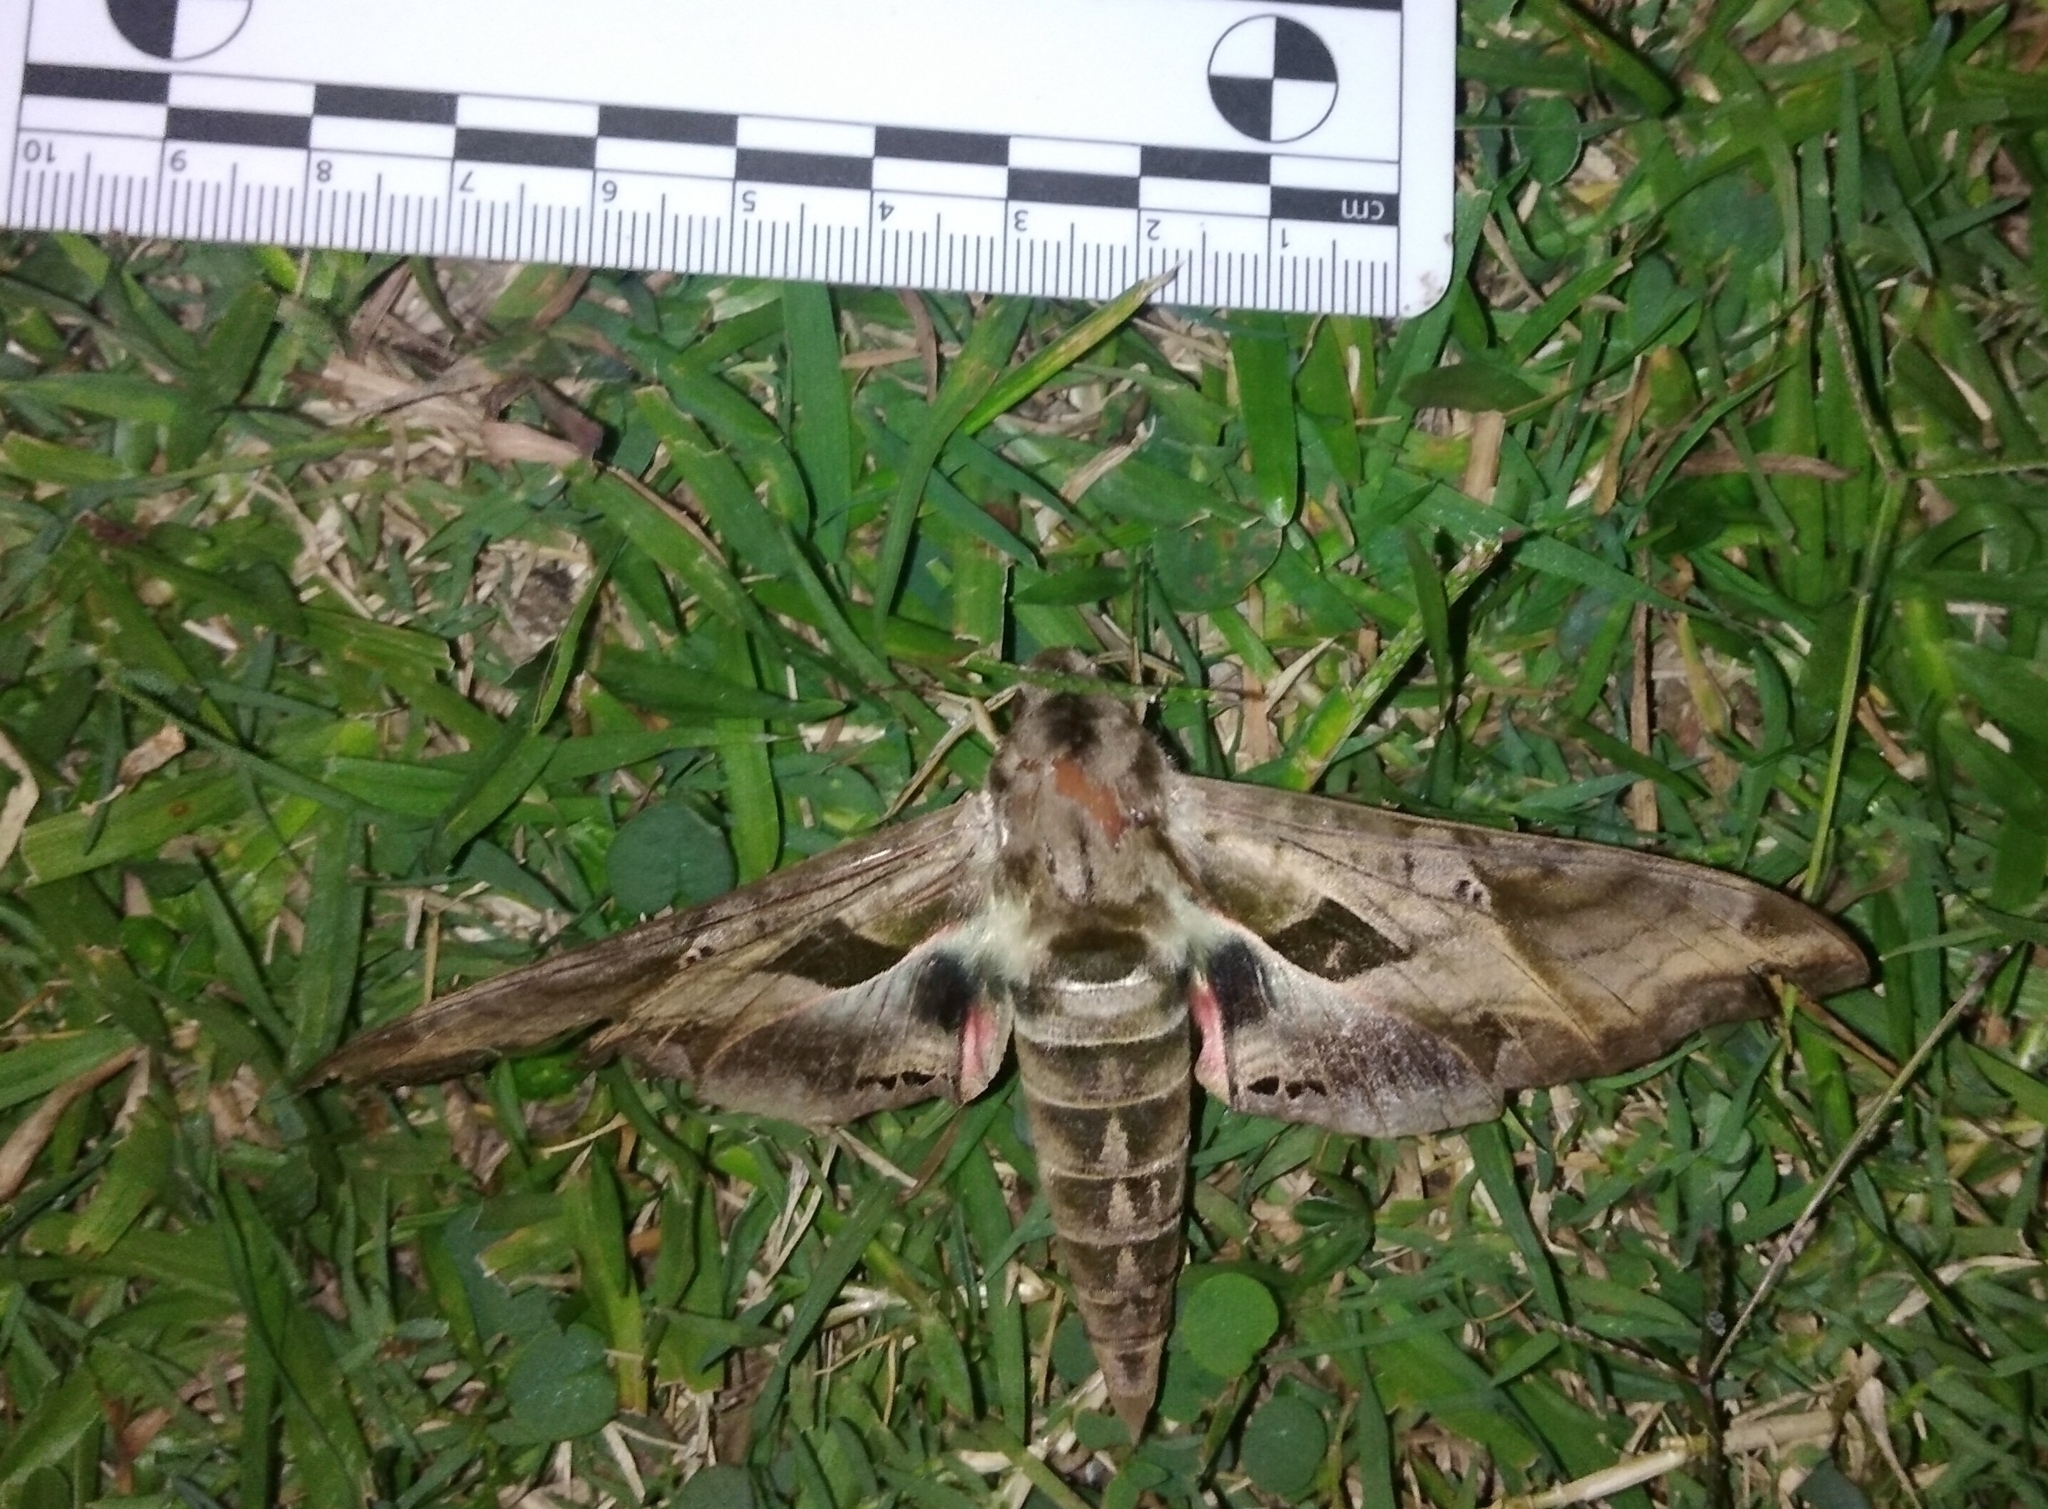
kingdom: Animalia
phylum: Arthropoda
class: Insecta
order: Lepidoptera
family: Sphingidae
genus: Eumorpha
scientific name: Eumorpha analis
